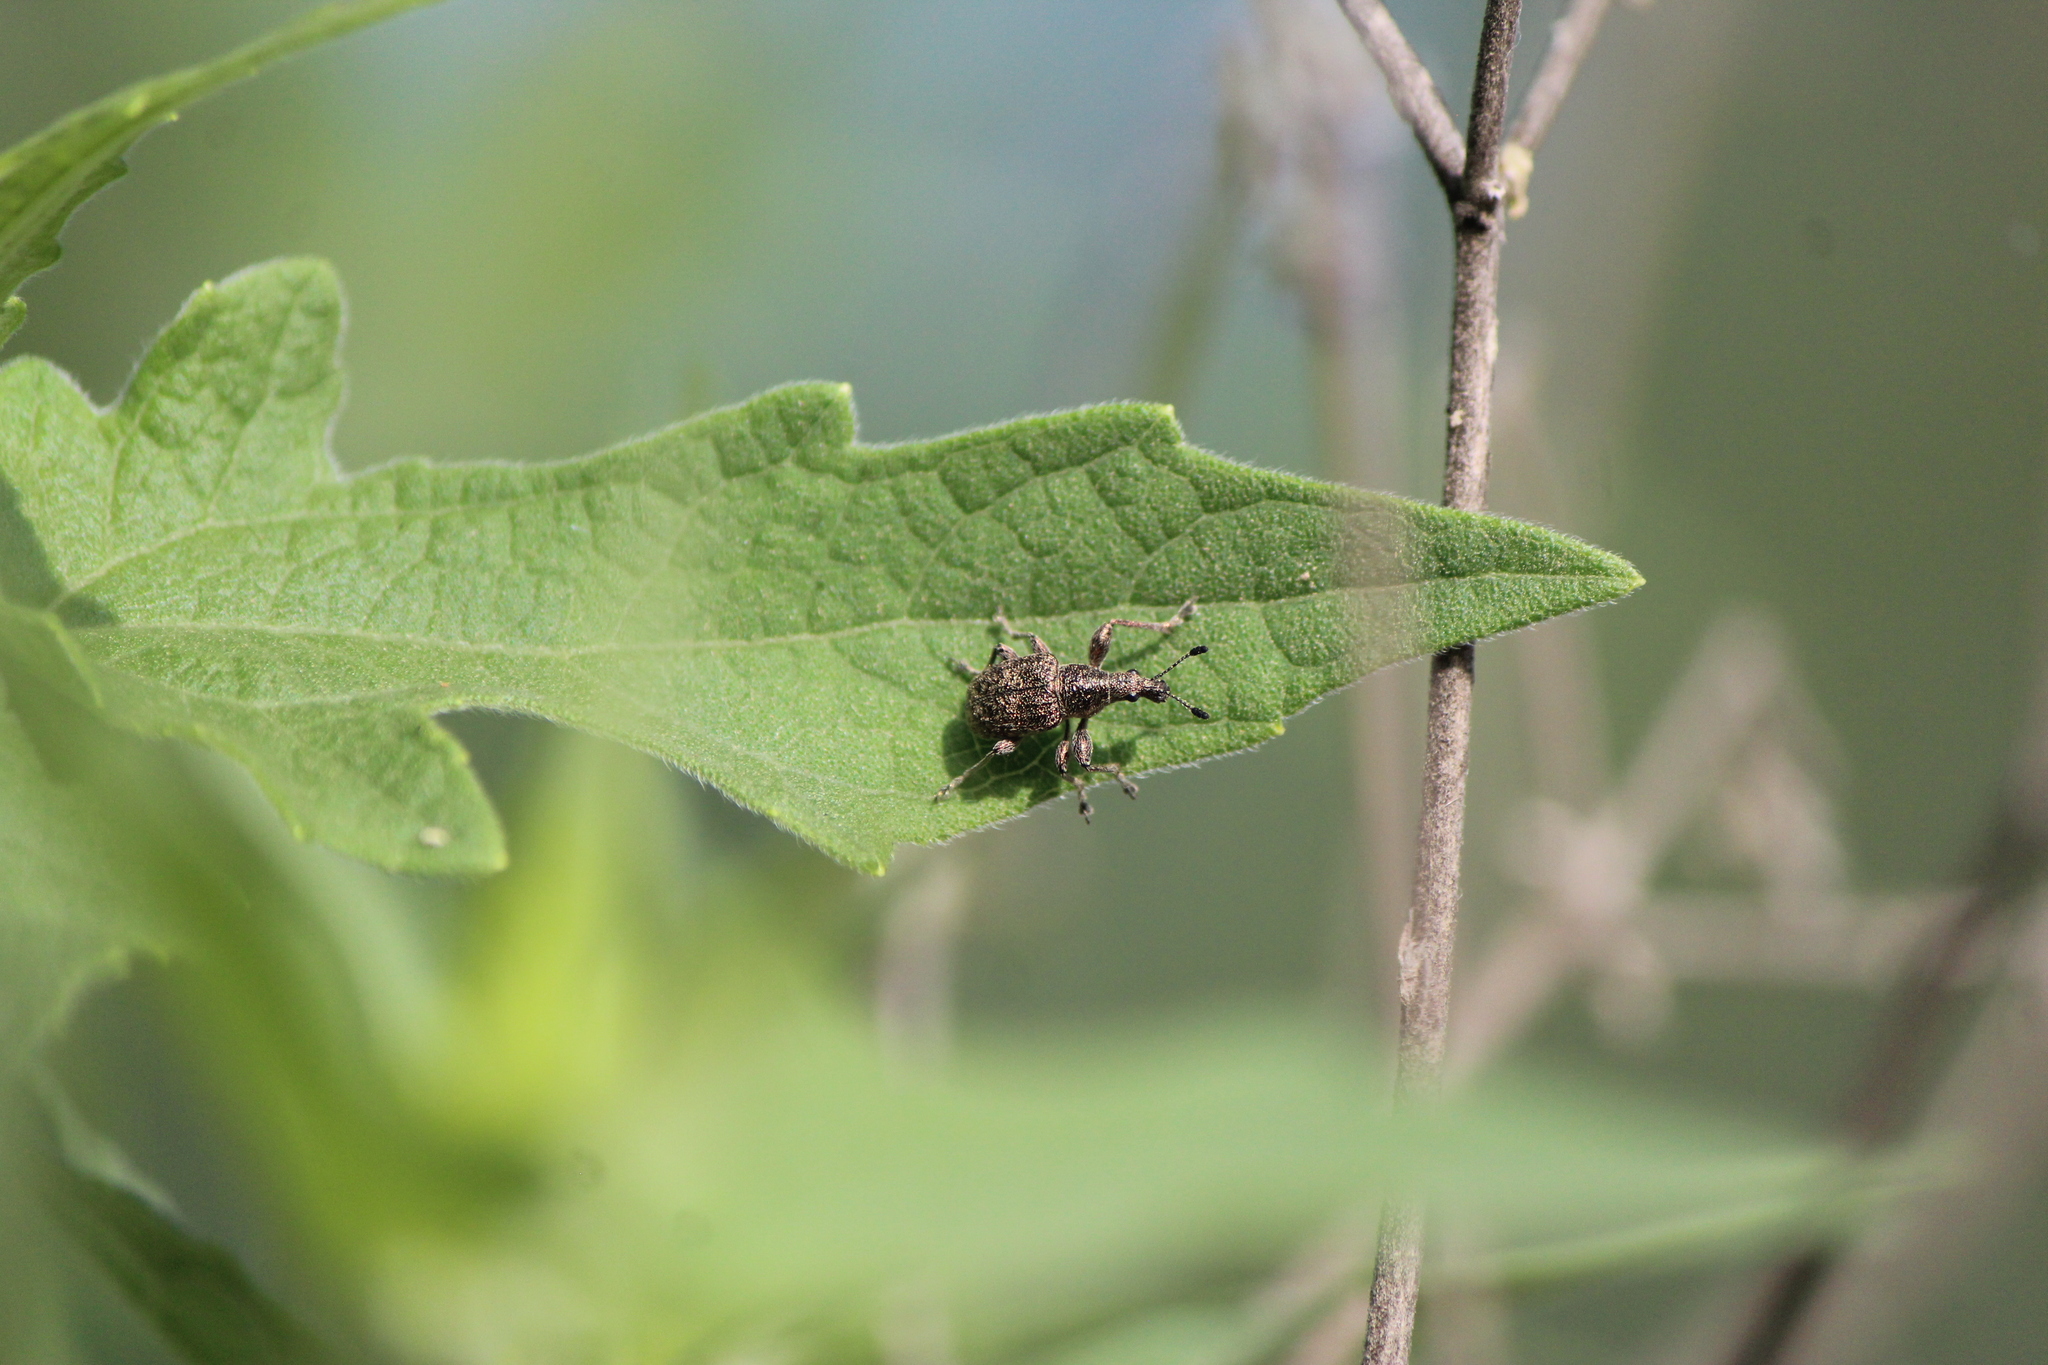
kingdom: Animalia
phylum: Arthropoda
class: Insecta
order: Coleoptera
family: Attelabidae
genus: Pilolabus
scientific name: Pilolabus klugi
